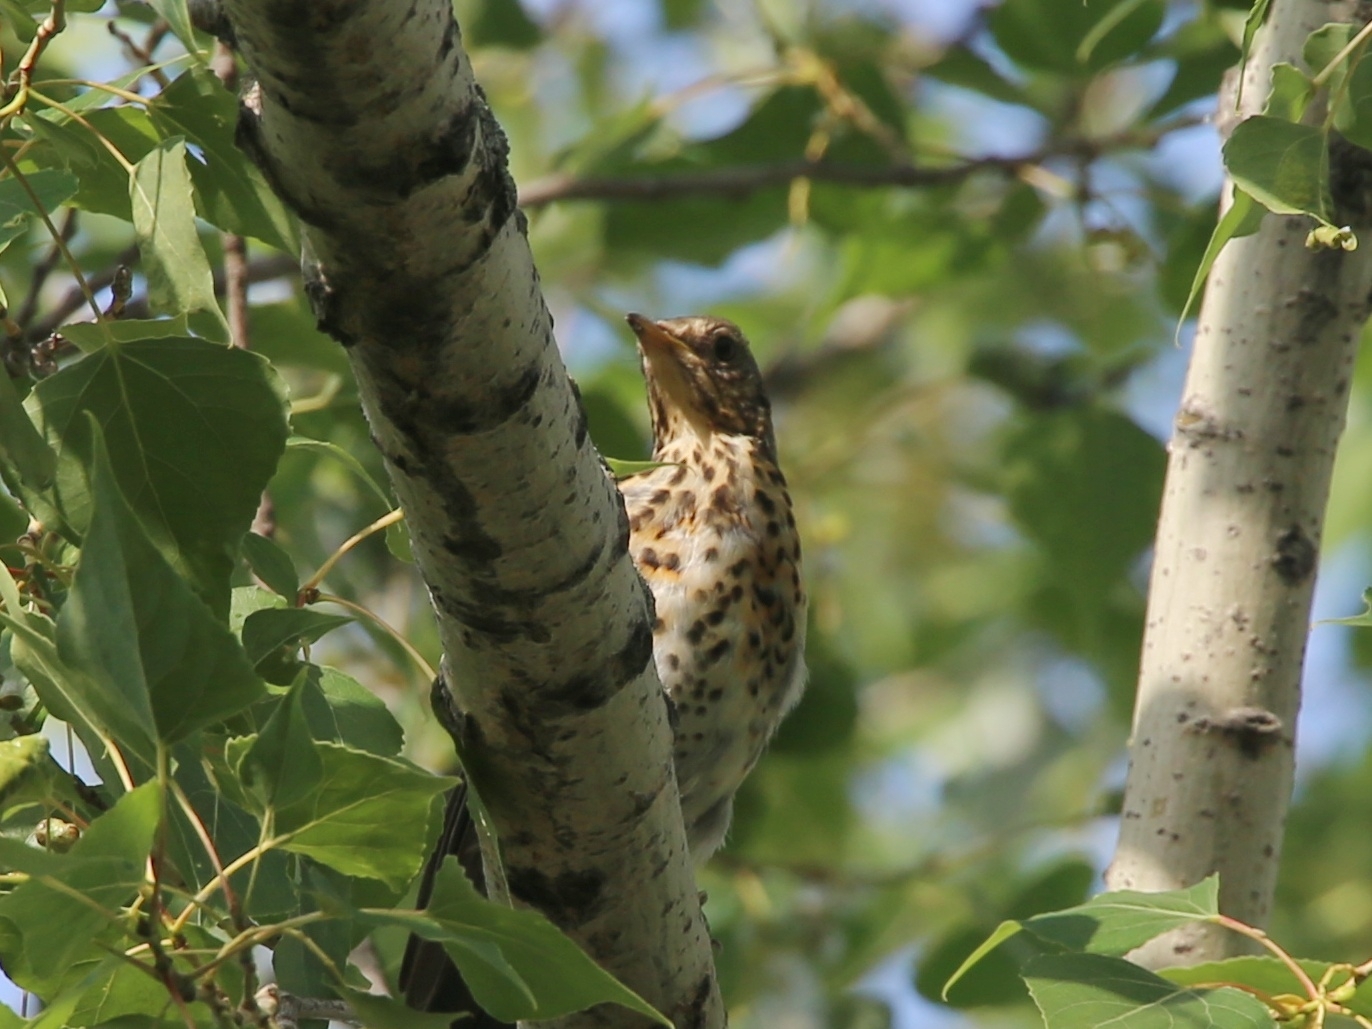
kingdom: Animalia
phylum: Chordata
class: Aves
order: Passeriformes
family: Turdidae
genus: Turdus
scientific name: Turdus pilaris
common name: Fieldfare
